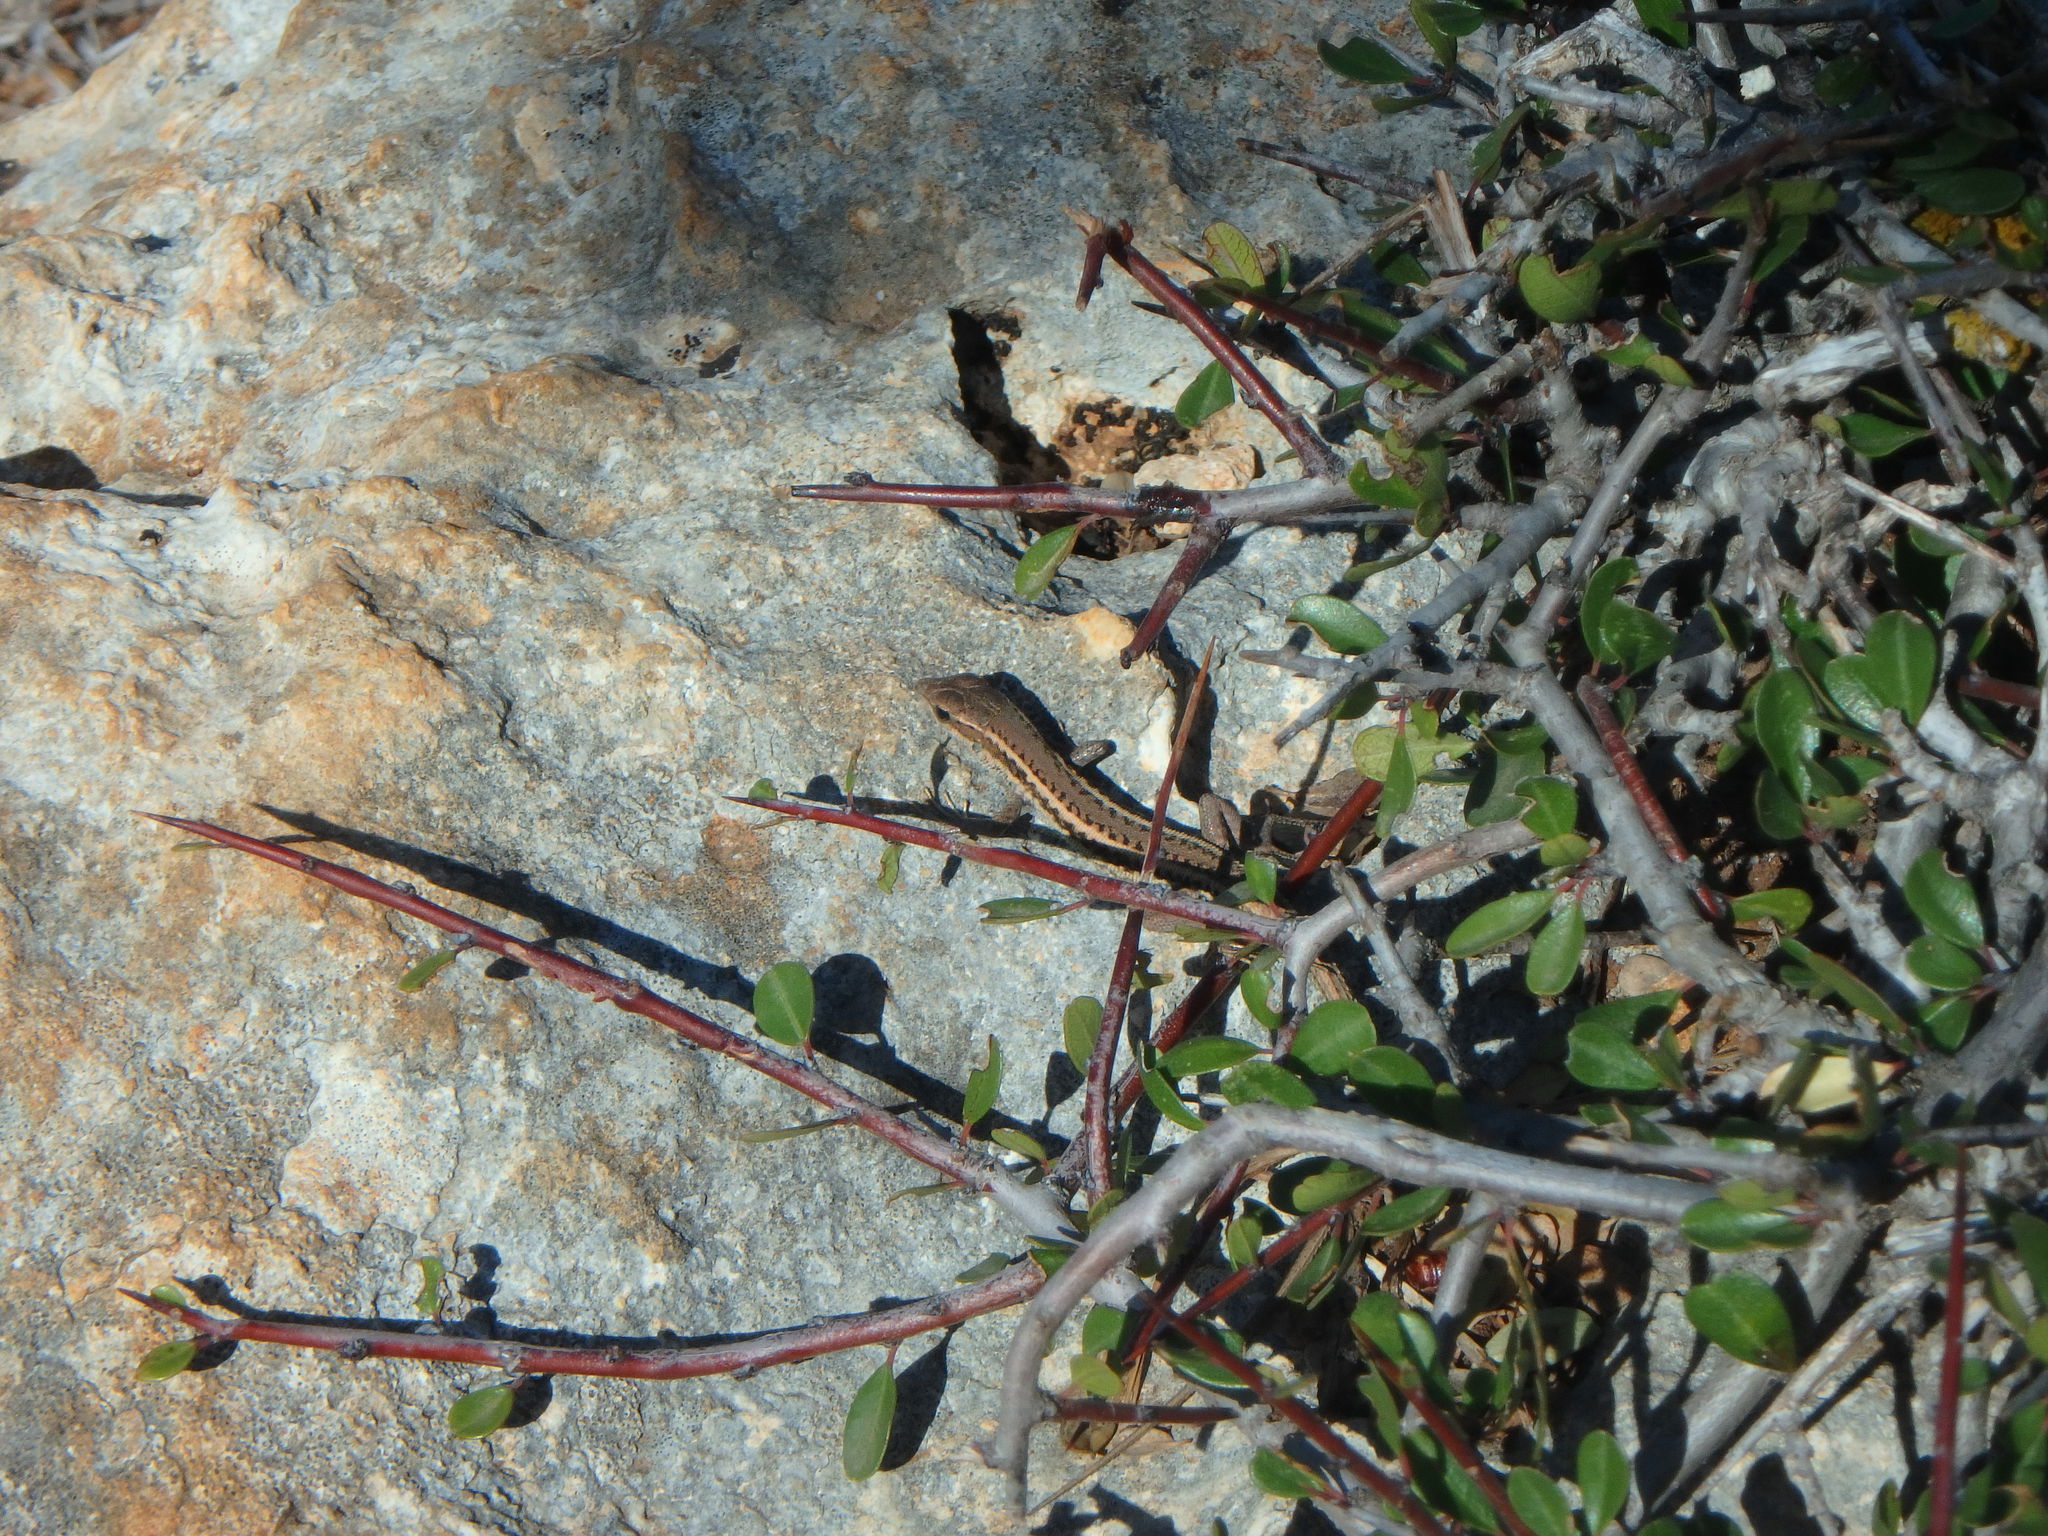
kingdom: Animalia
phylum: Chordata
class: Squamata
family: Lacertidae
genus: Ophisops
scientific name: Ophisops elegans
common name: Snake-eyed lizard
